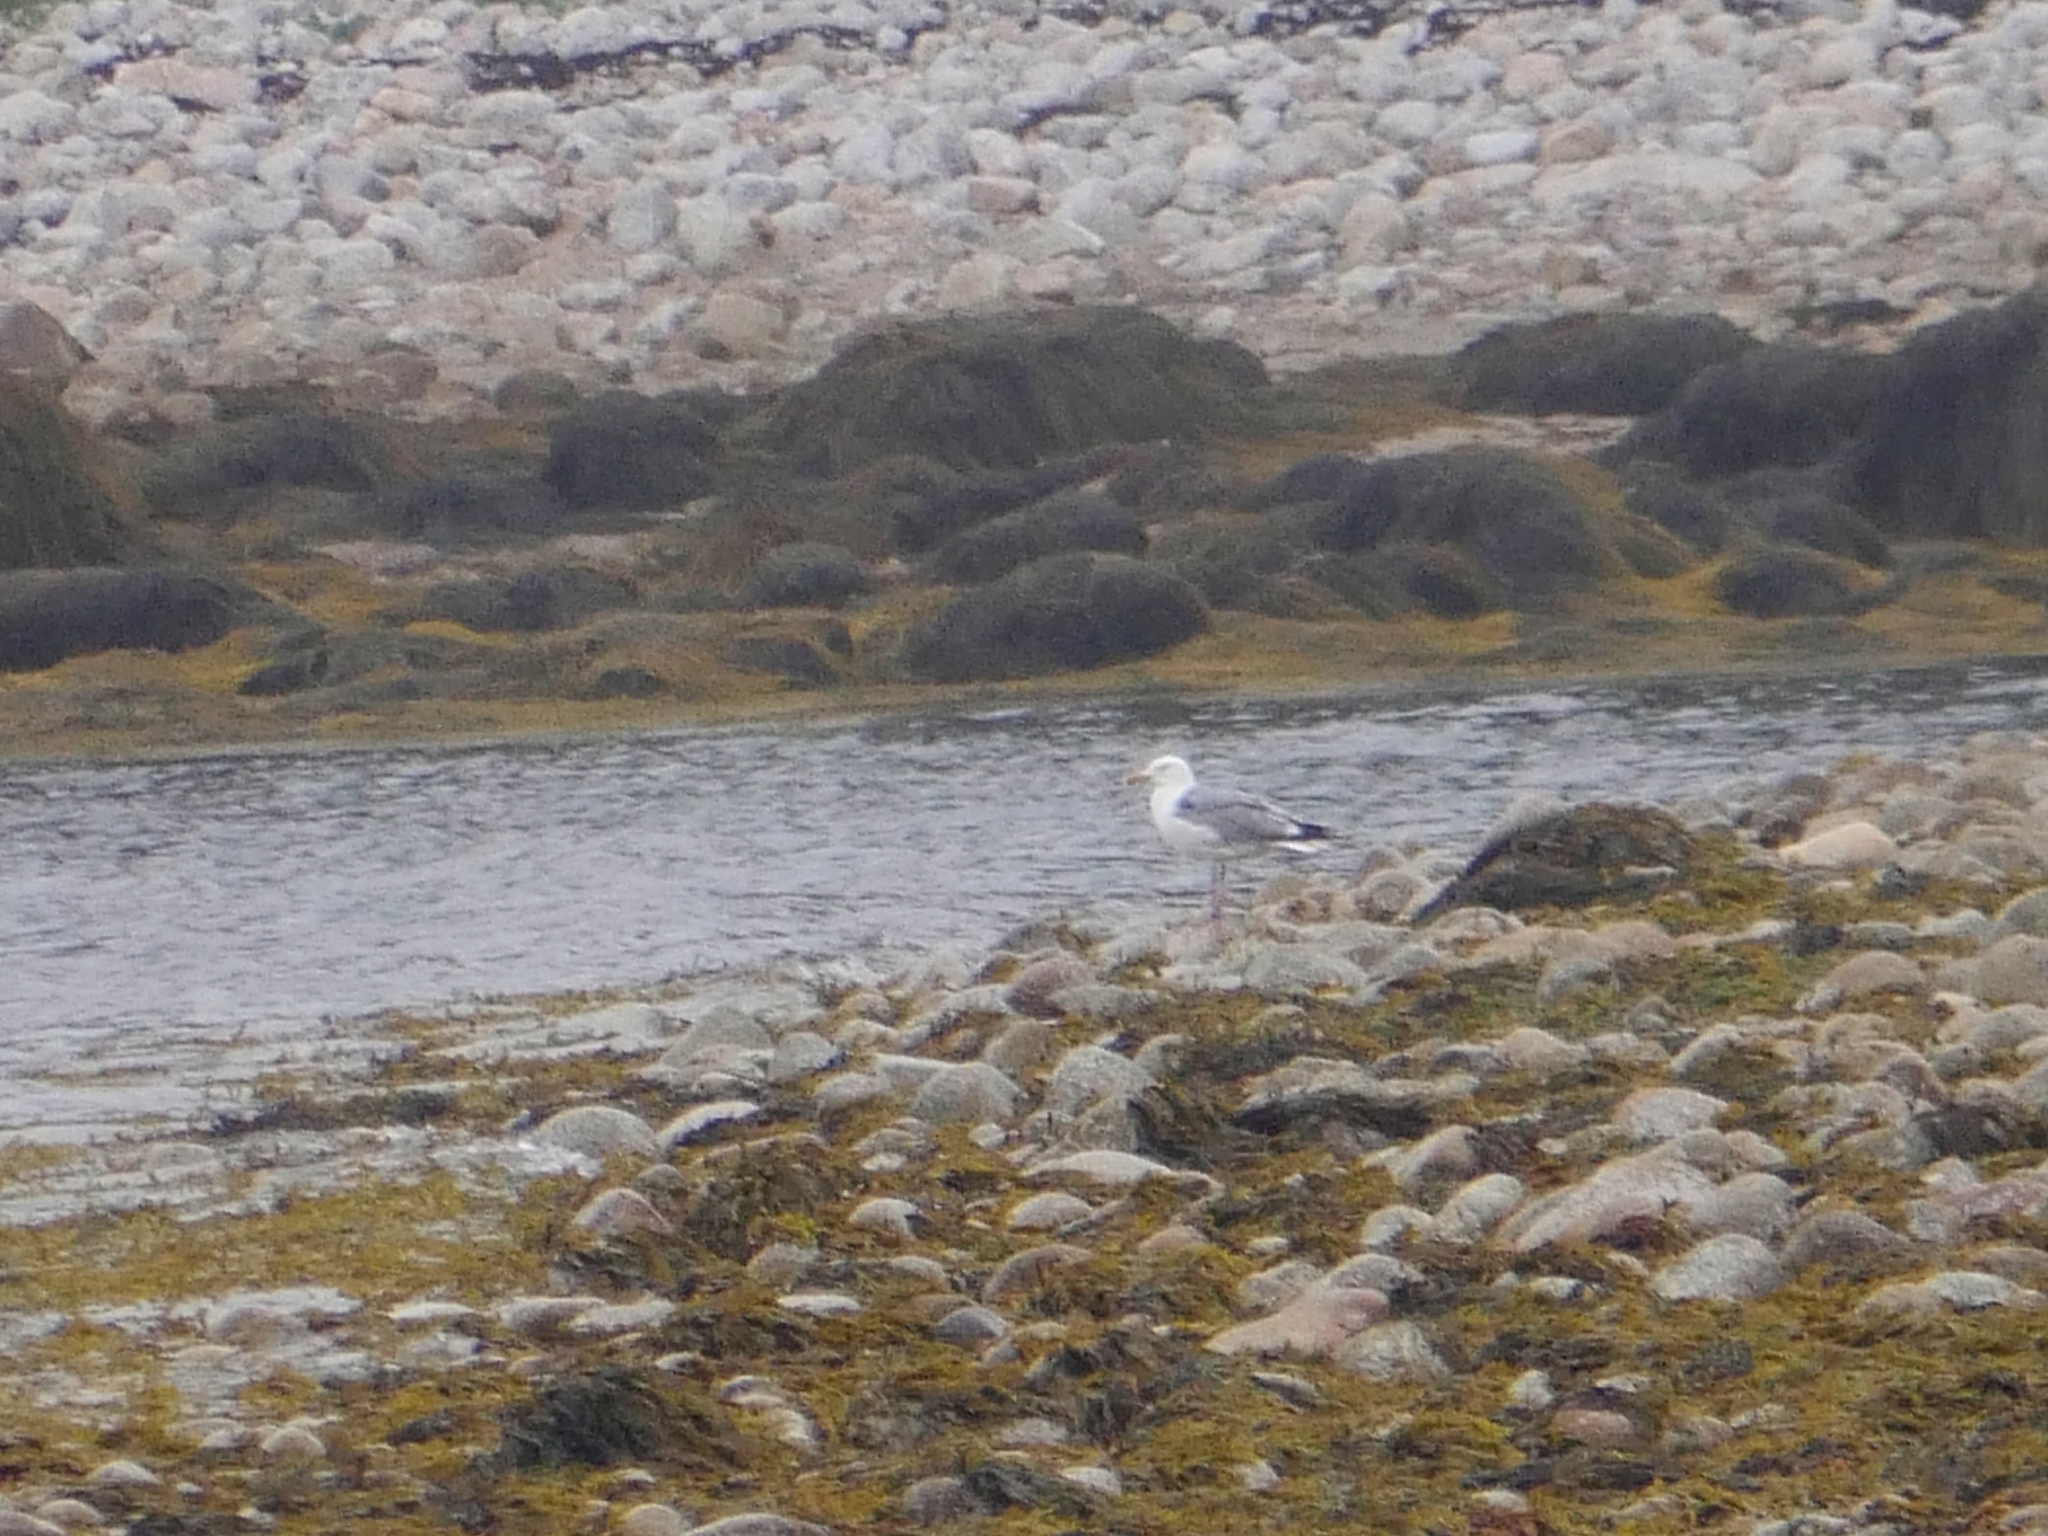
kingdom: Animalia
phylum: Chordata
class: Aves
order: Charadriiformes
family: Laridae
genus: Larus
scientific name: Larus argentatus
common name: Herring gull
